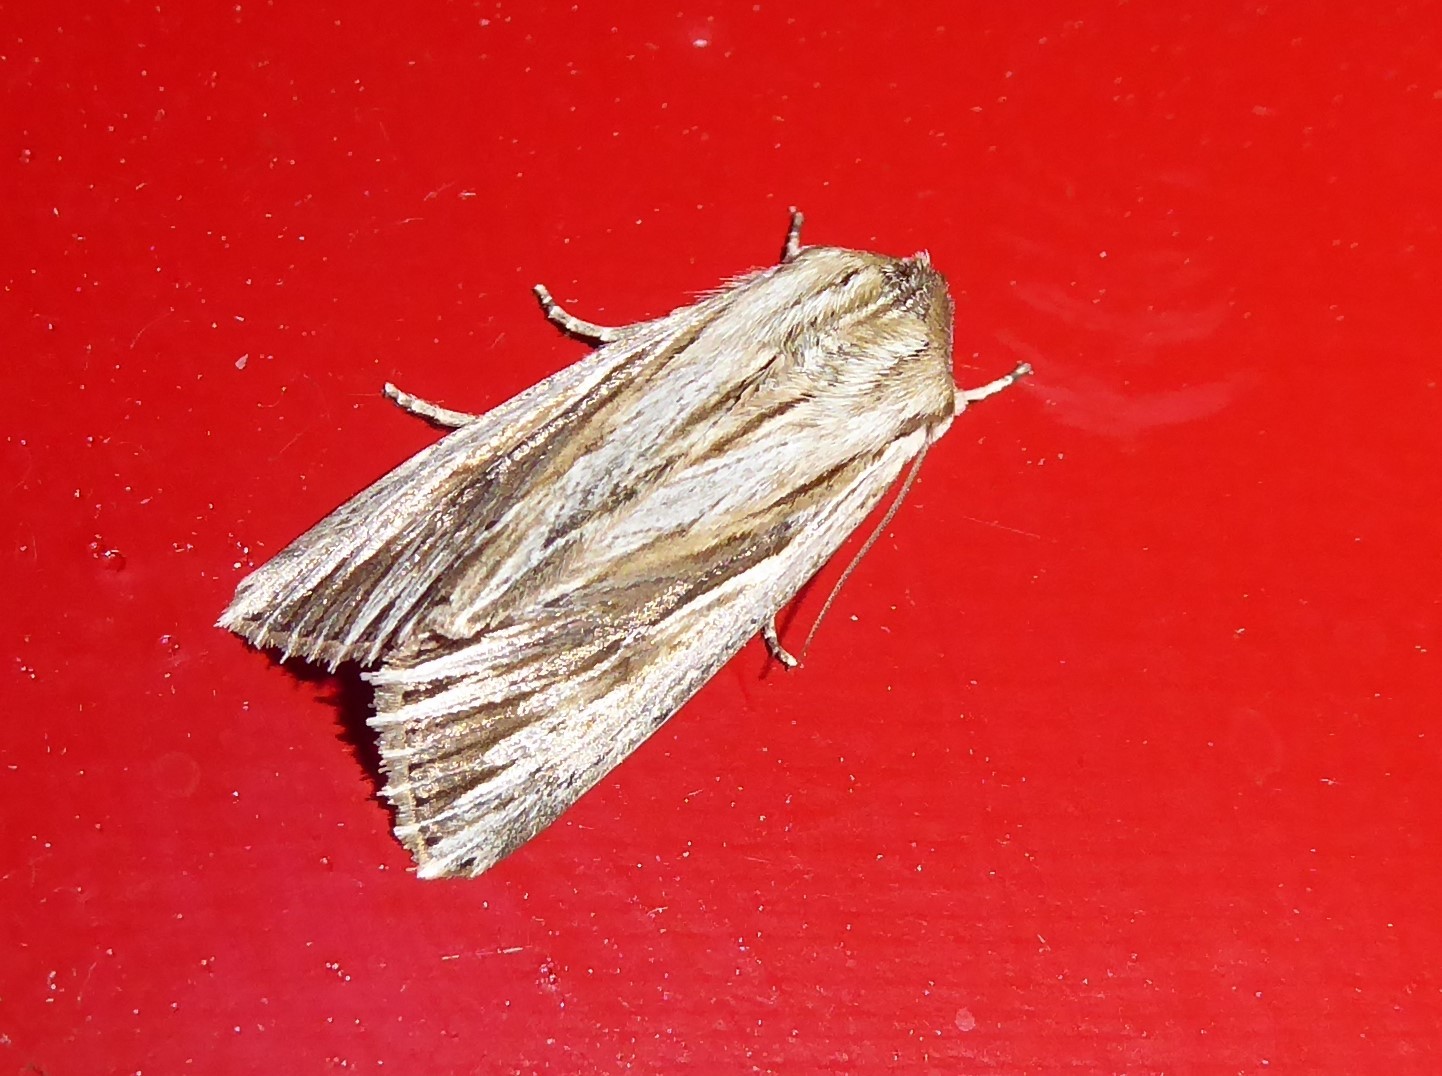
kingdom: Animalia
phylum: Arthropoda
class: Insecta
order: Lepidoptera
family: Noctuidae
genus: Persectania
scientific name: Persectania aversa
